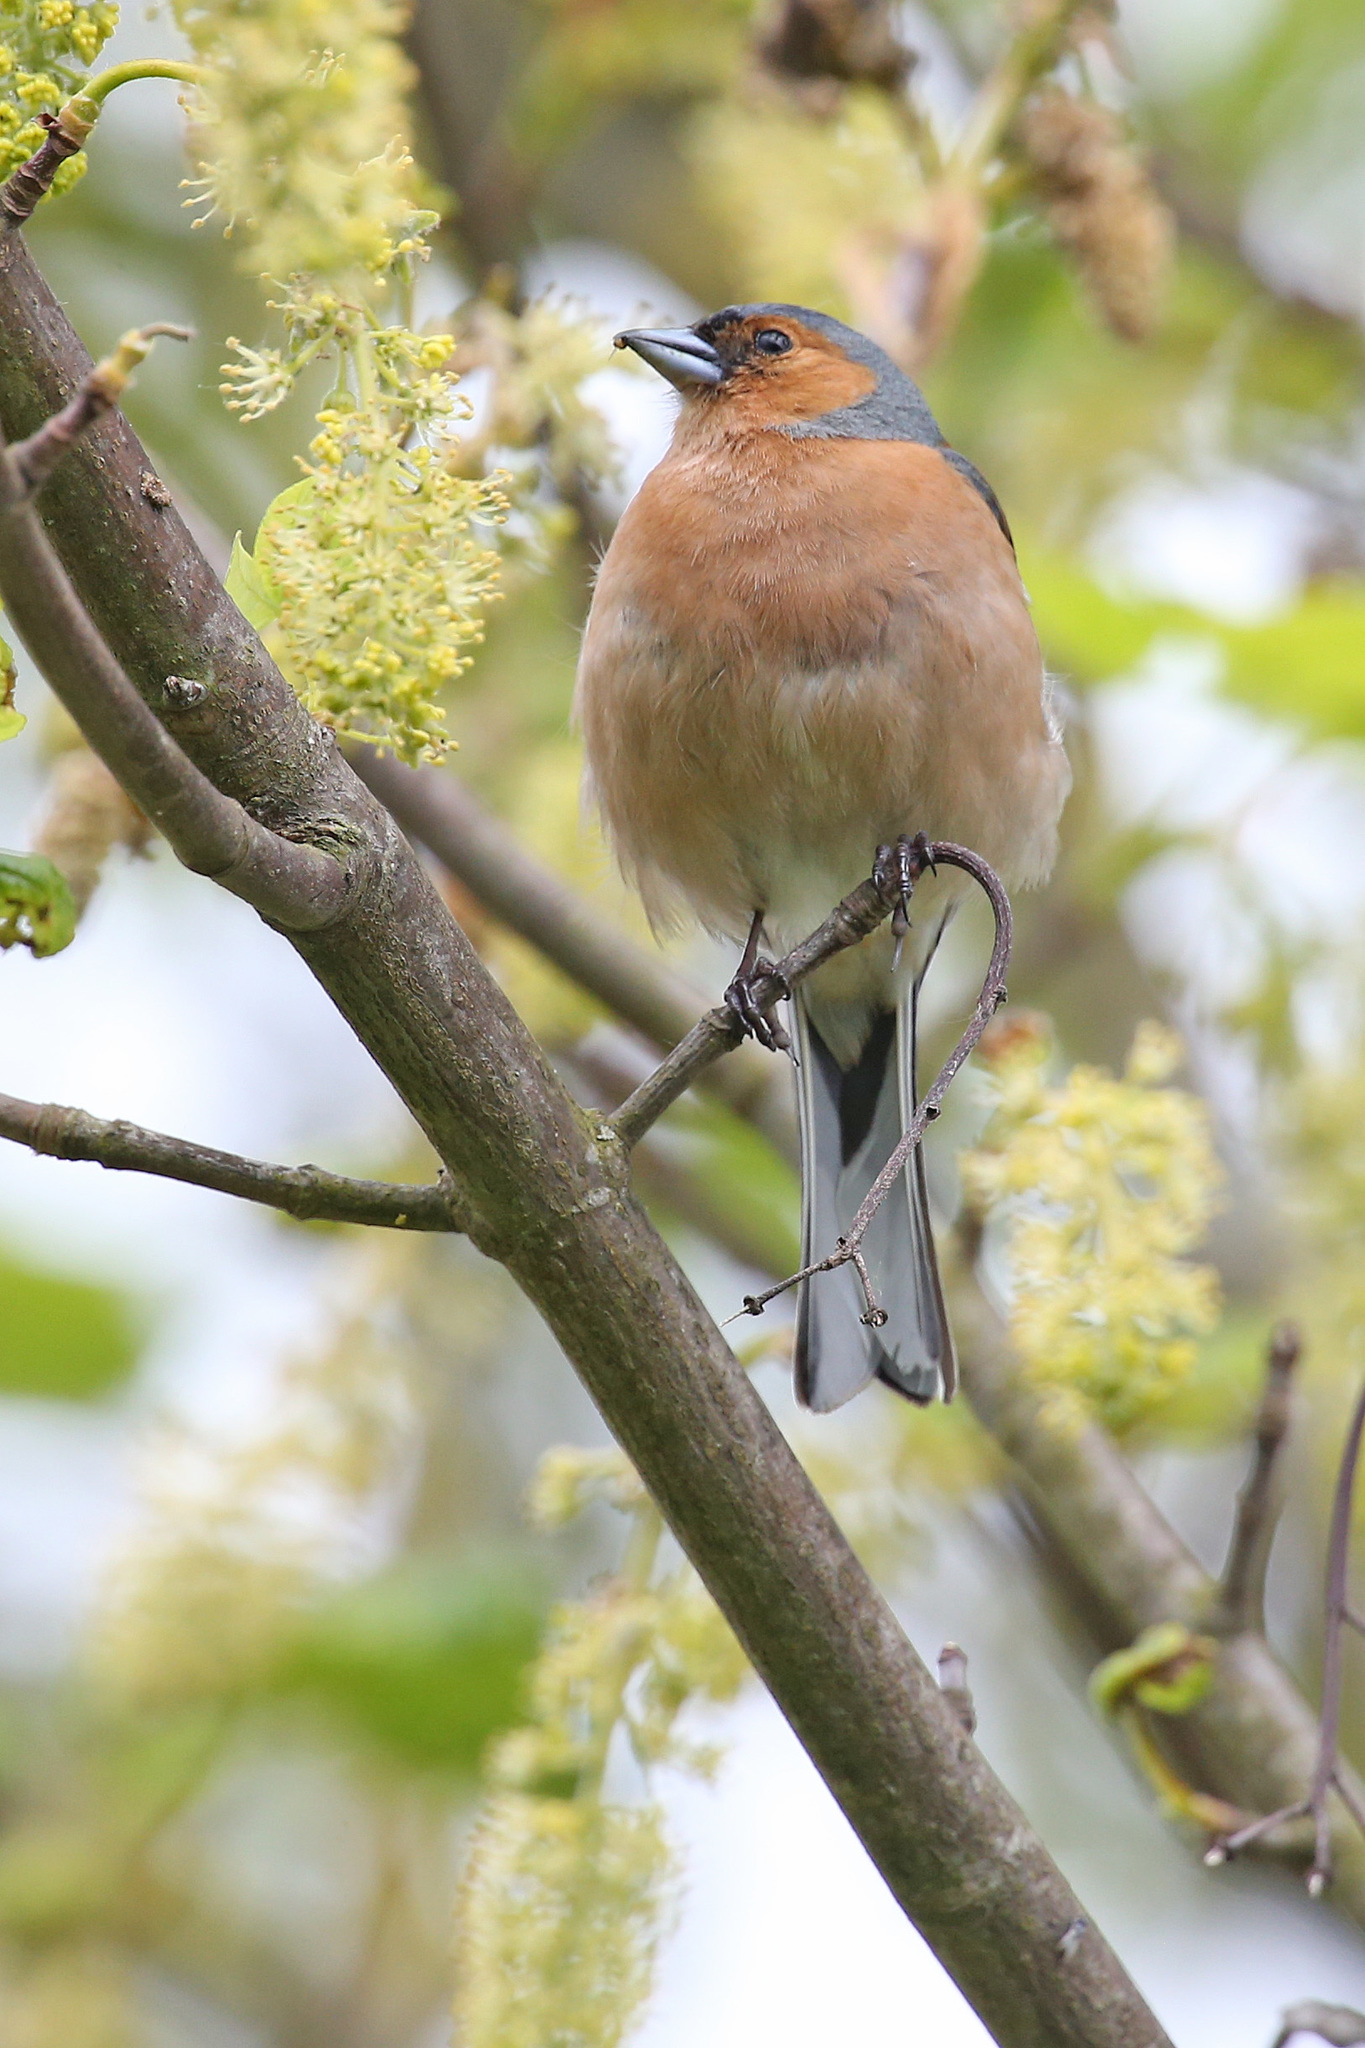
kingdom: Animalia
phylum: Chordata
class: Aves
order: Passeriformes
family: Fringillidae
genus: Fringilla
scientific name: Fringilla coelebs
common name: Common chaffinch
